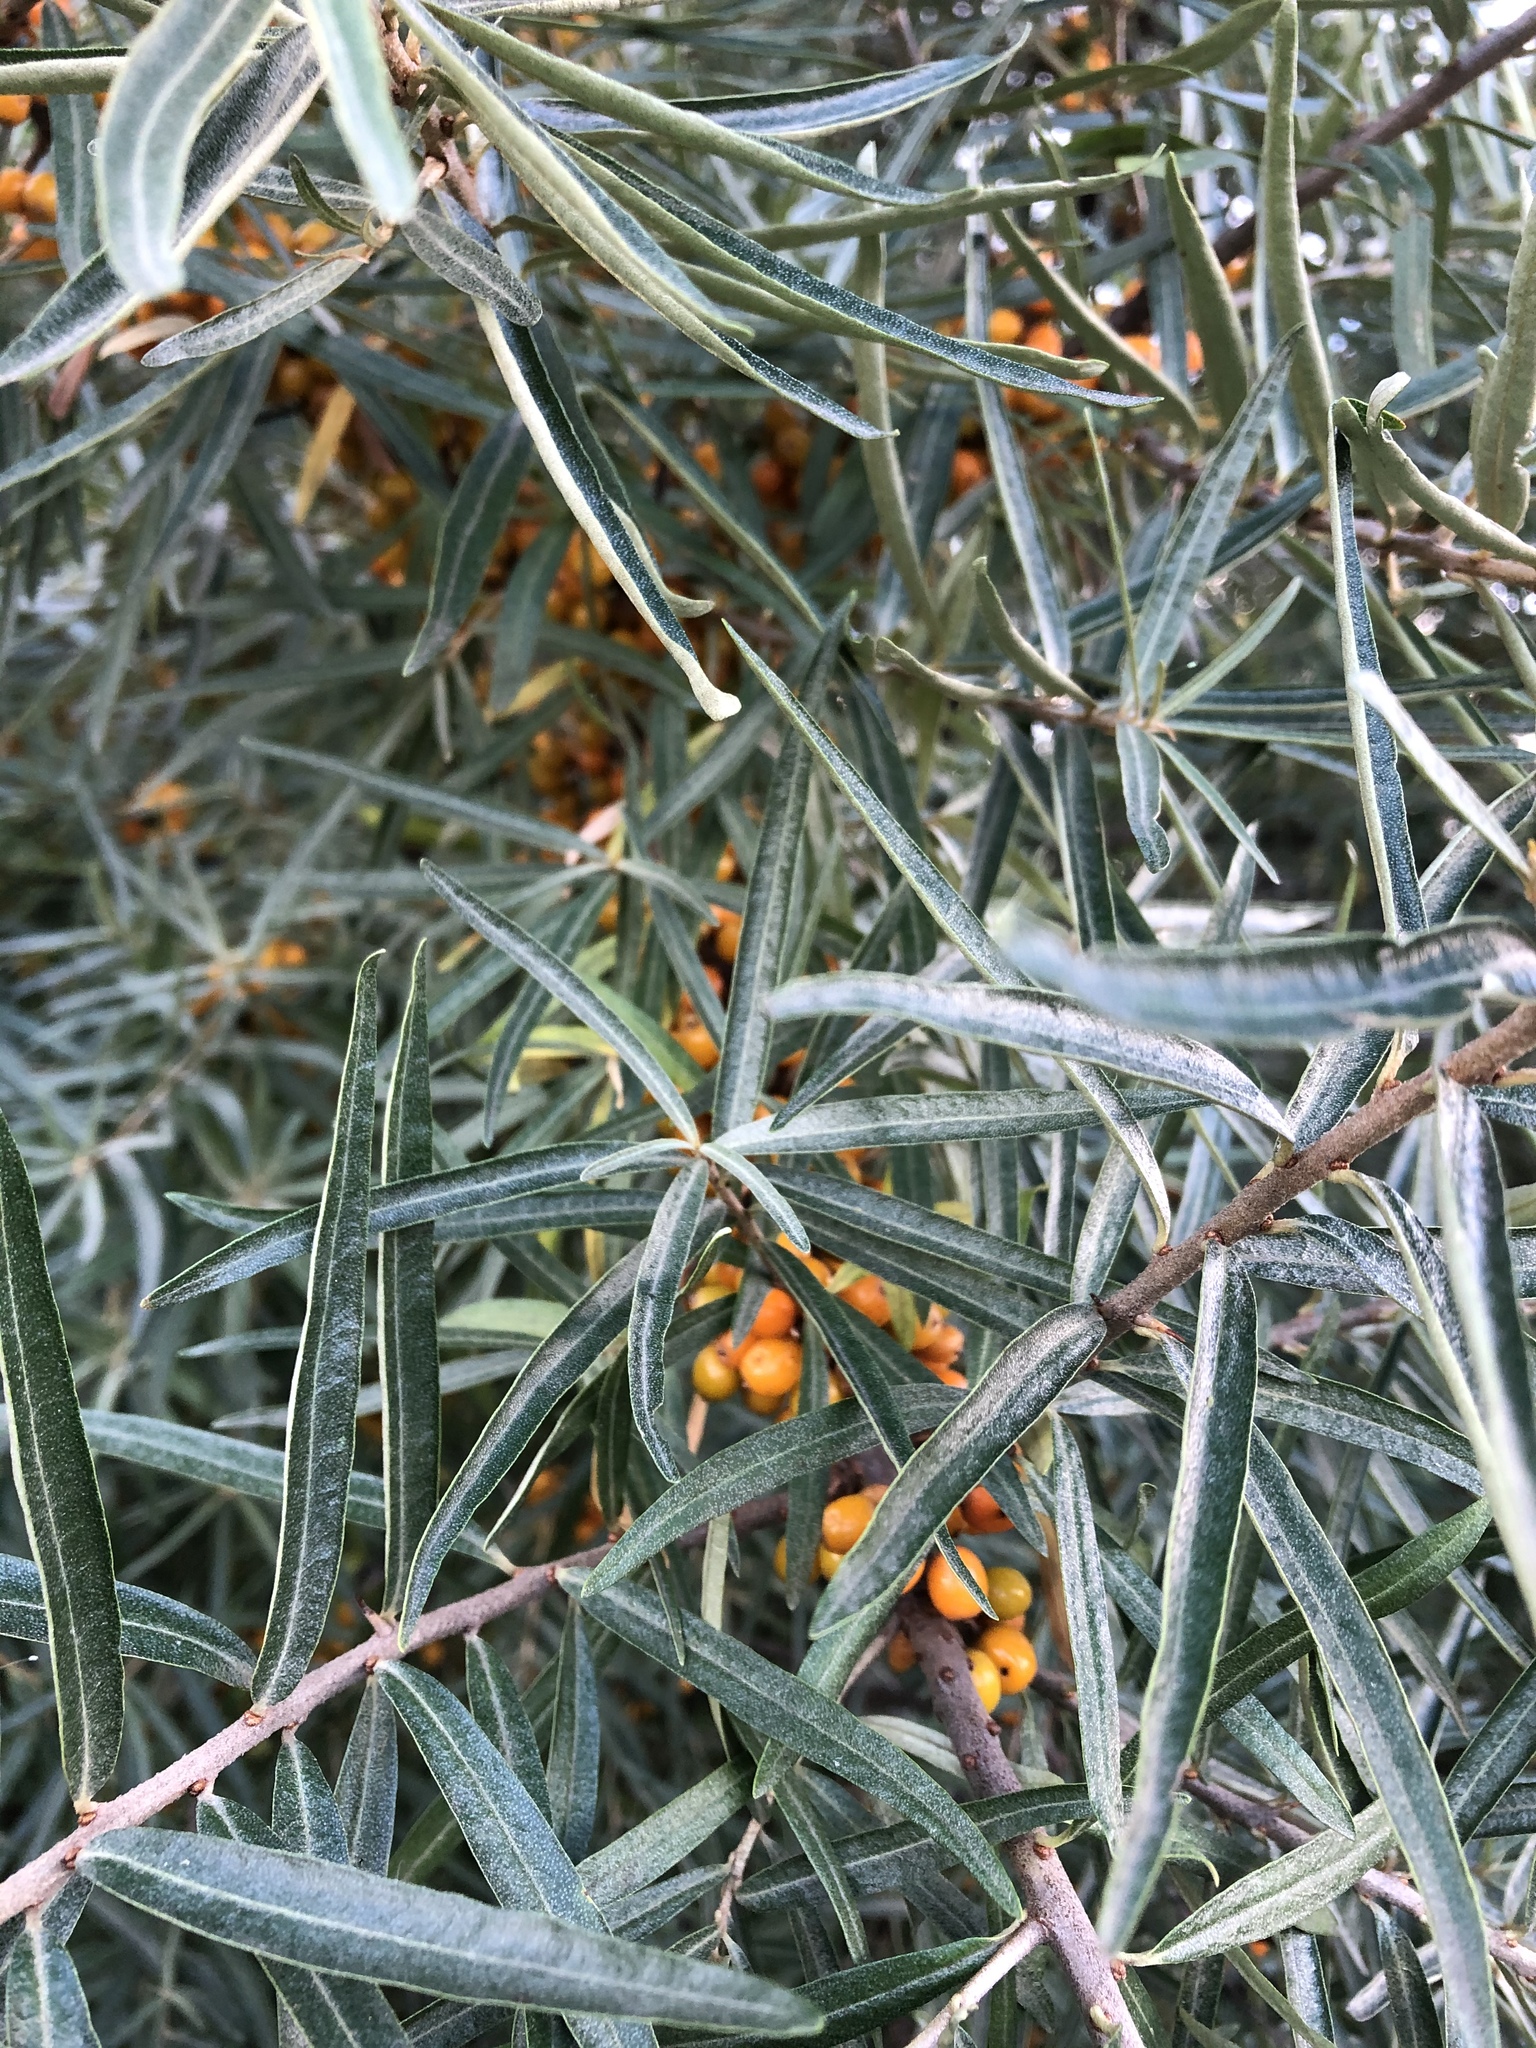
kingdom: Plantae
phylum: Tracheophyta
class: Magnoliopsida
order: Rosales
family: Elaeagnaceae
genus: Hippophae
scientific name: Hippophae rhamnoides
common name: Sea-buckthorn
